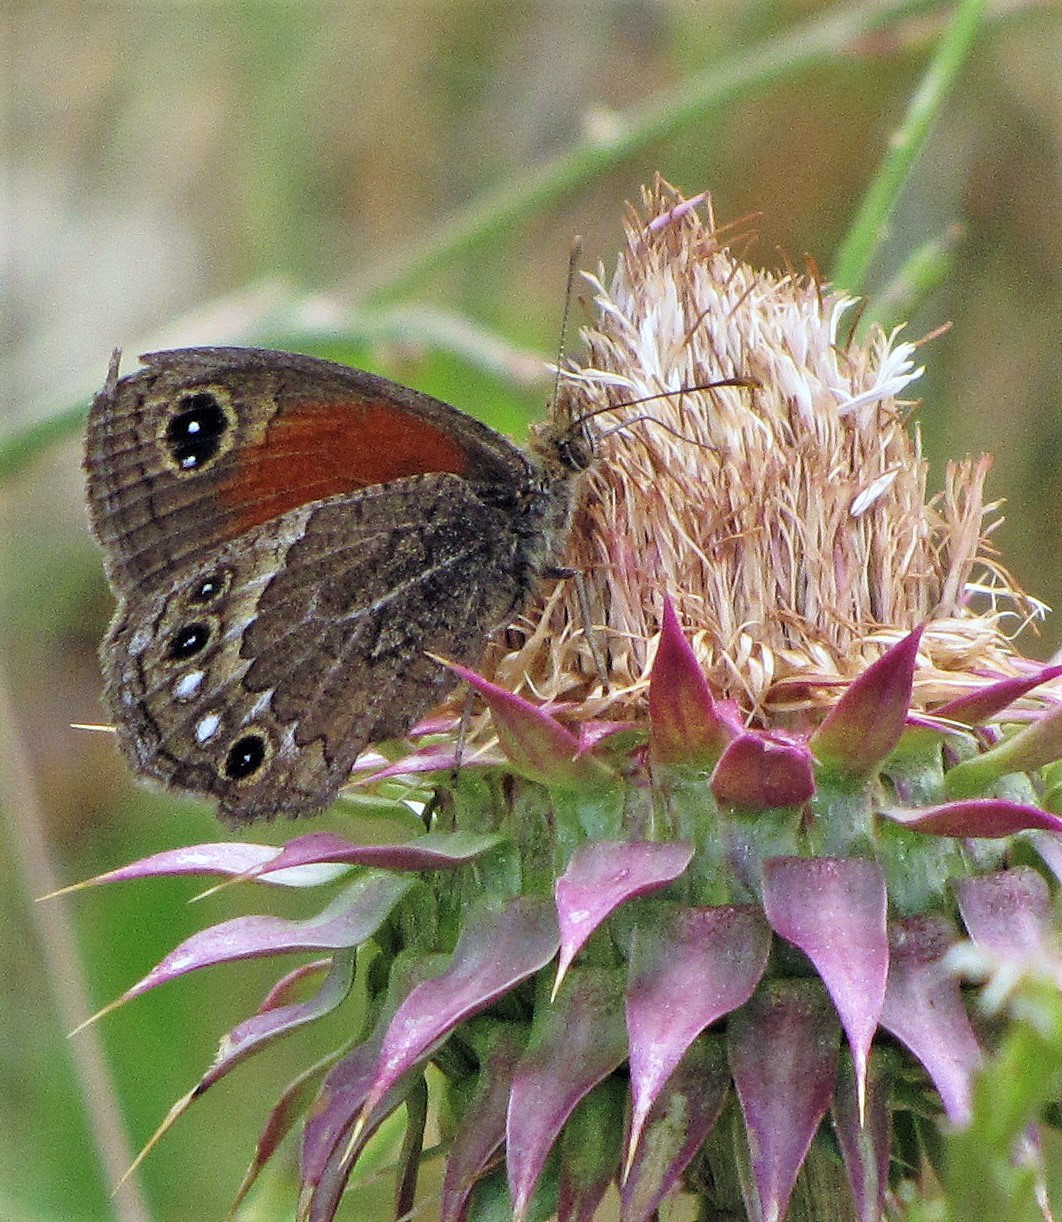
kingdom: Animalia
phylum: Arthropoda
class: Insecta
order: Lepidoptera
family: Nymphalidae
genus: Cosmosatyrus
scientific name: Cosmosatyrus leptoneuroides
